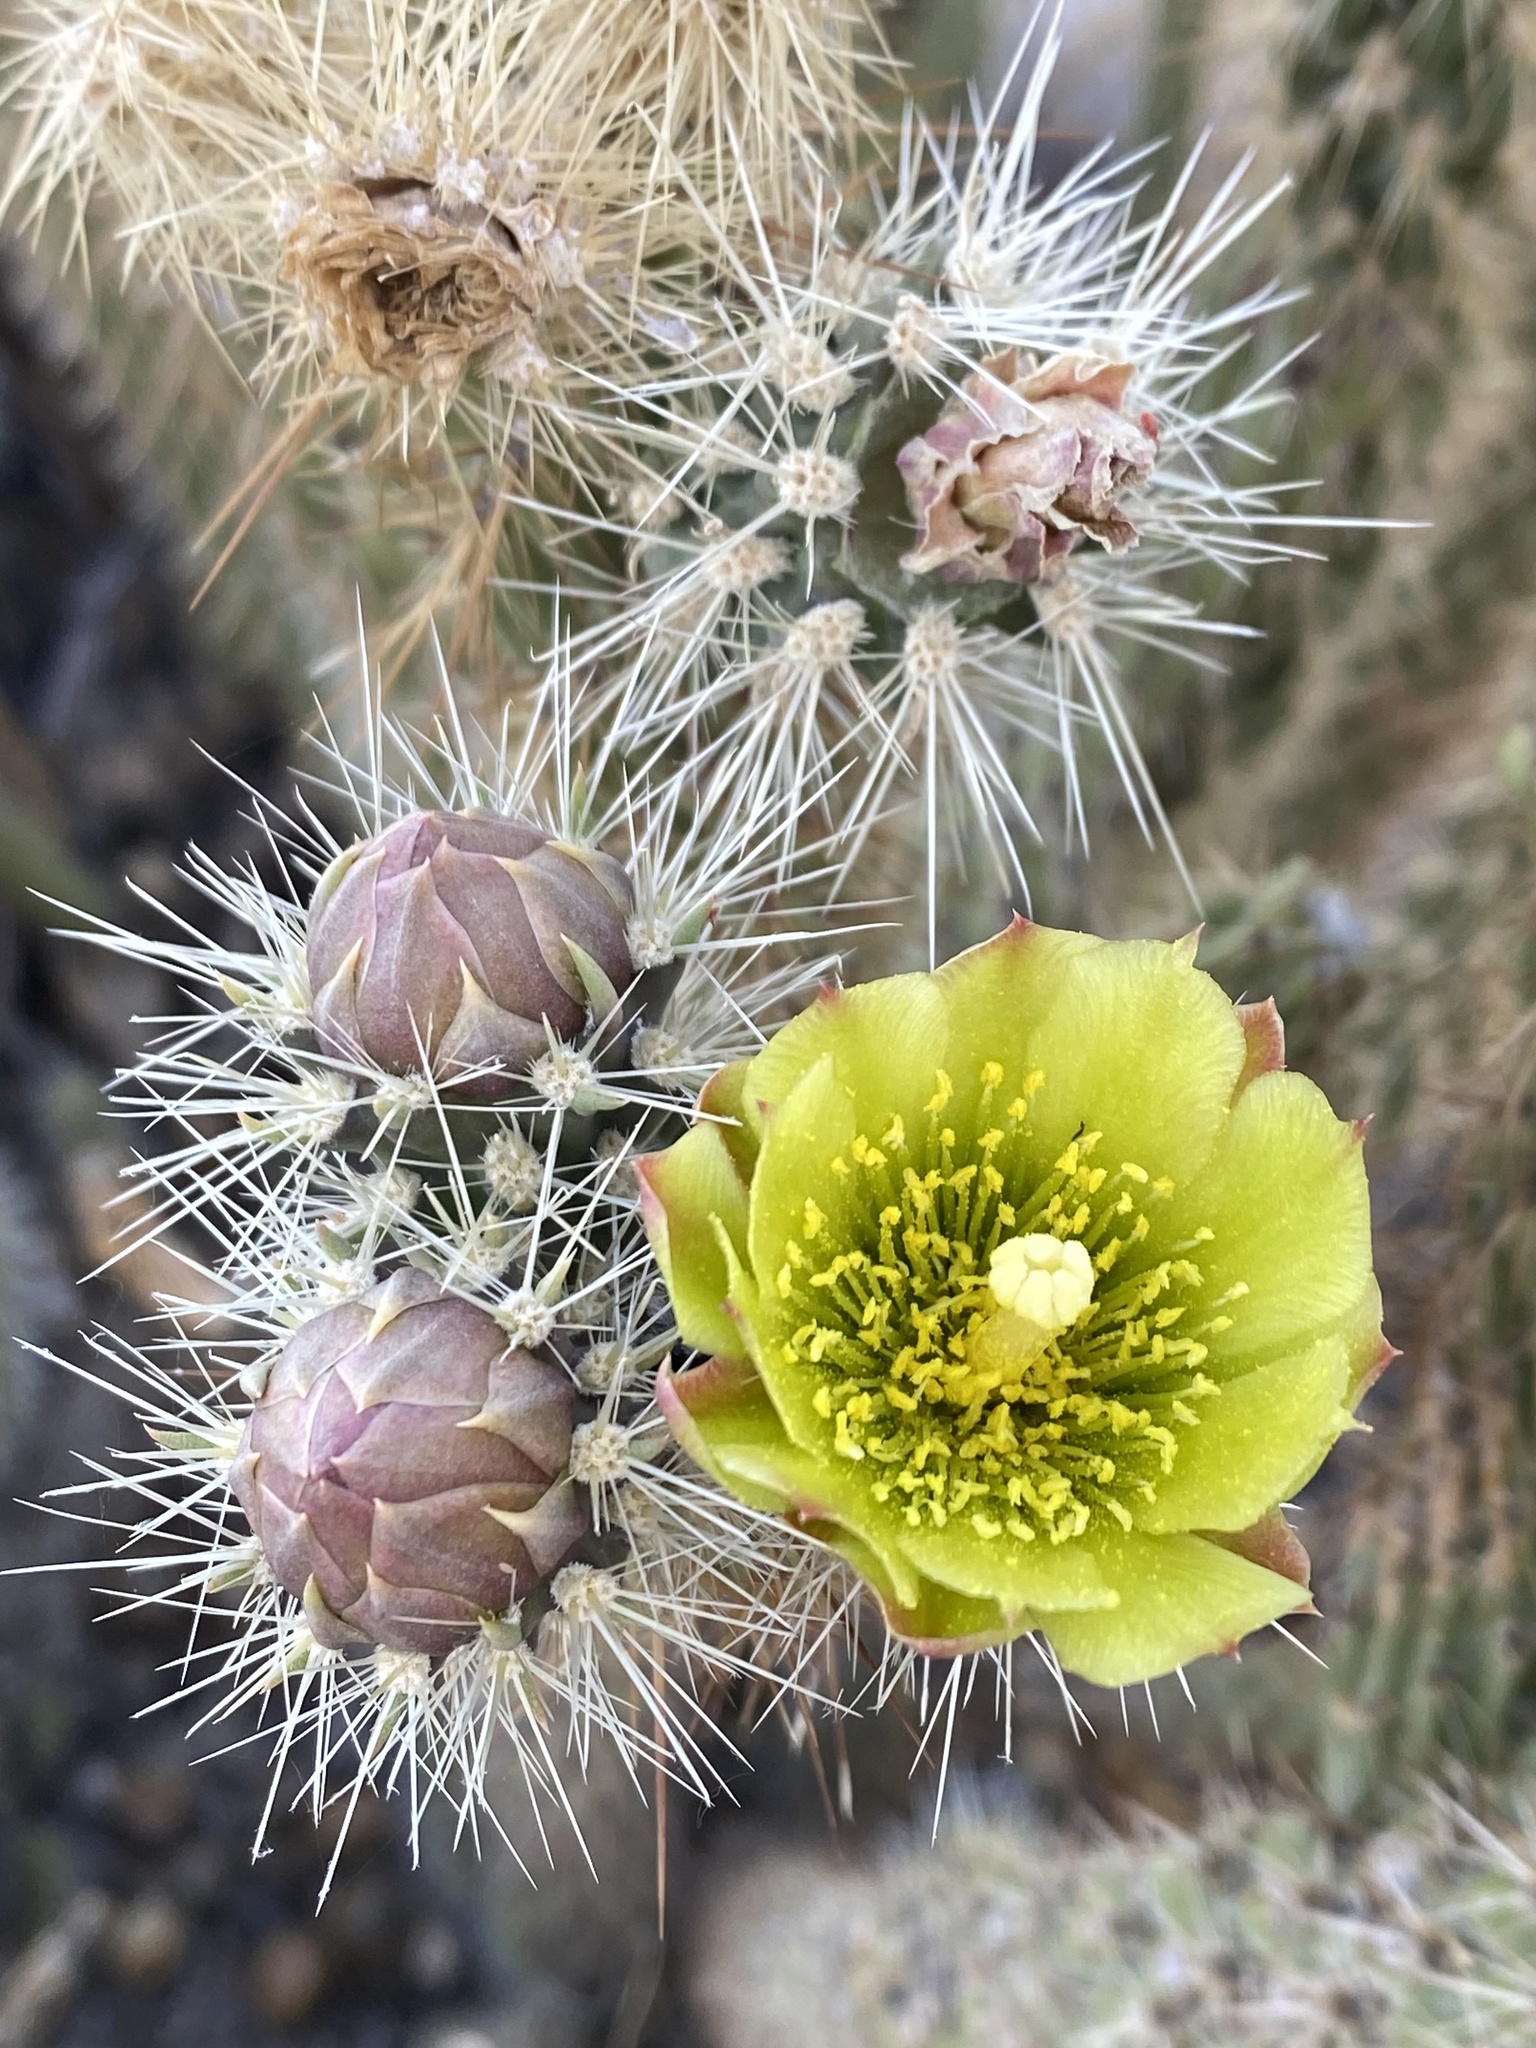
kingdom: Plantae
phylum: Tracheophyta
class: Magnoliopsida
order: Caryophyllales
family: Cactaceae
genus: Cylindropuntia
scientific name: Cylindropuntia ganderi
